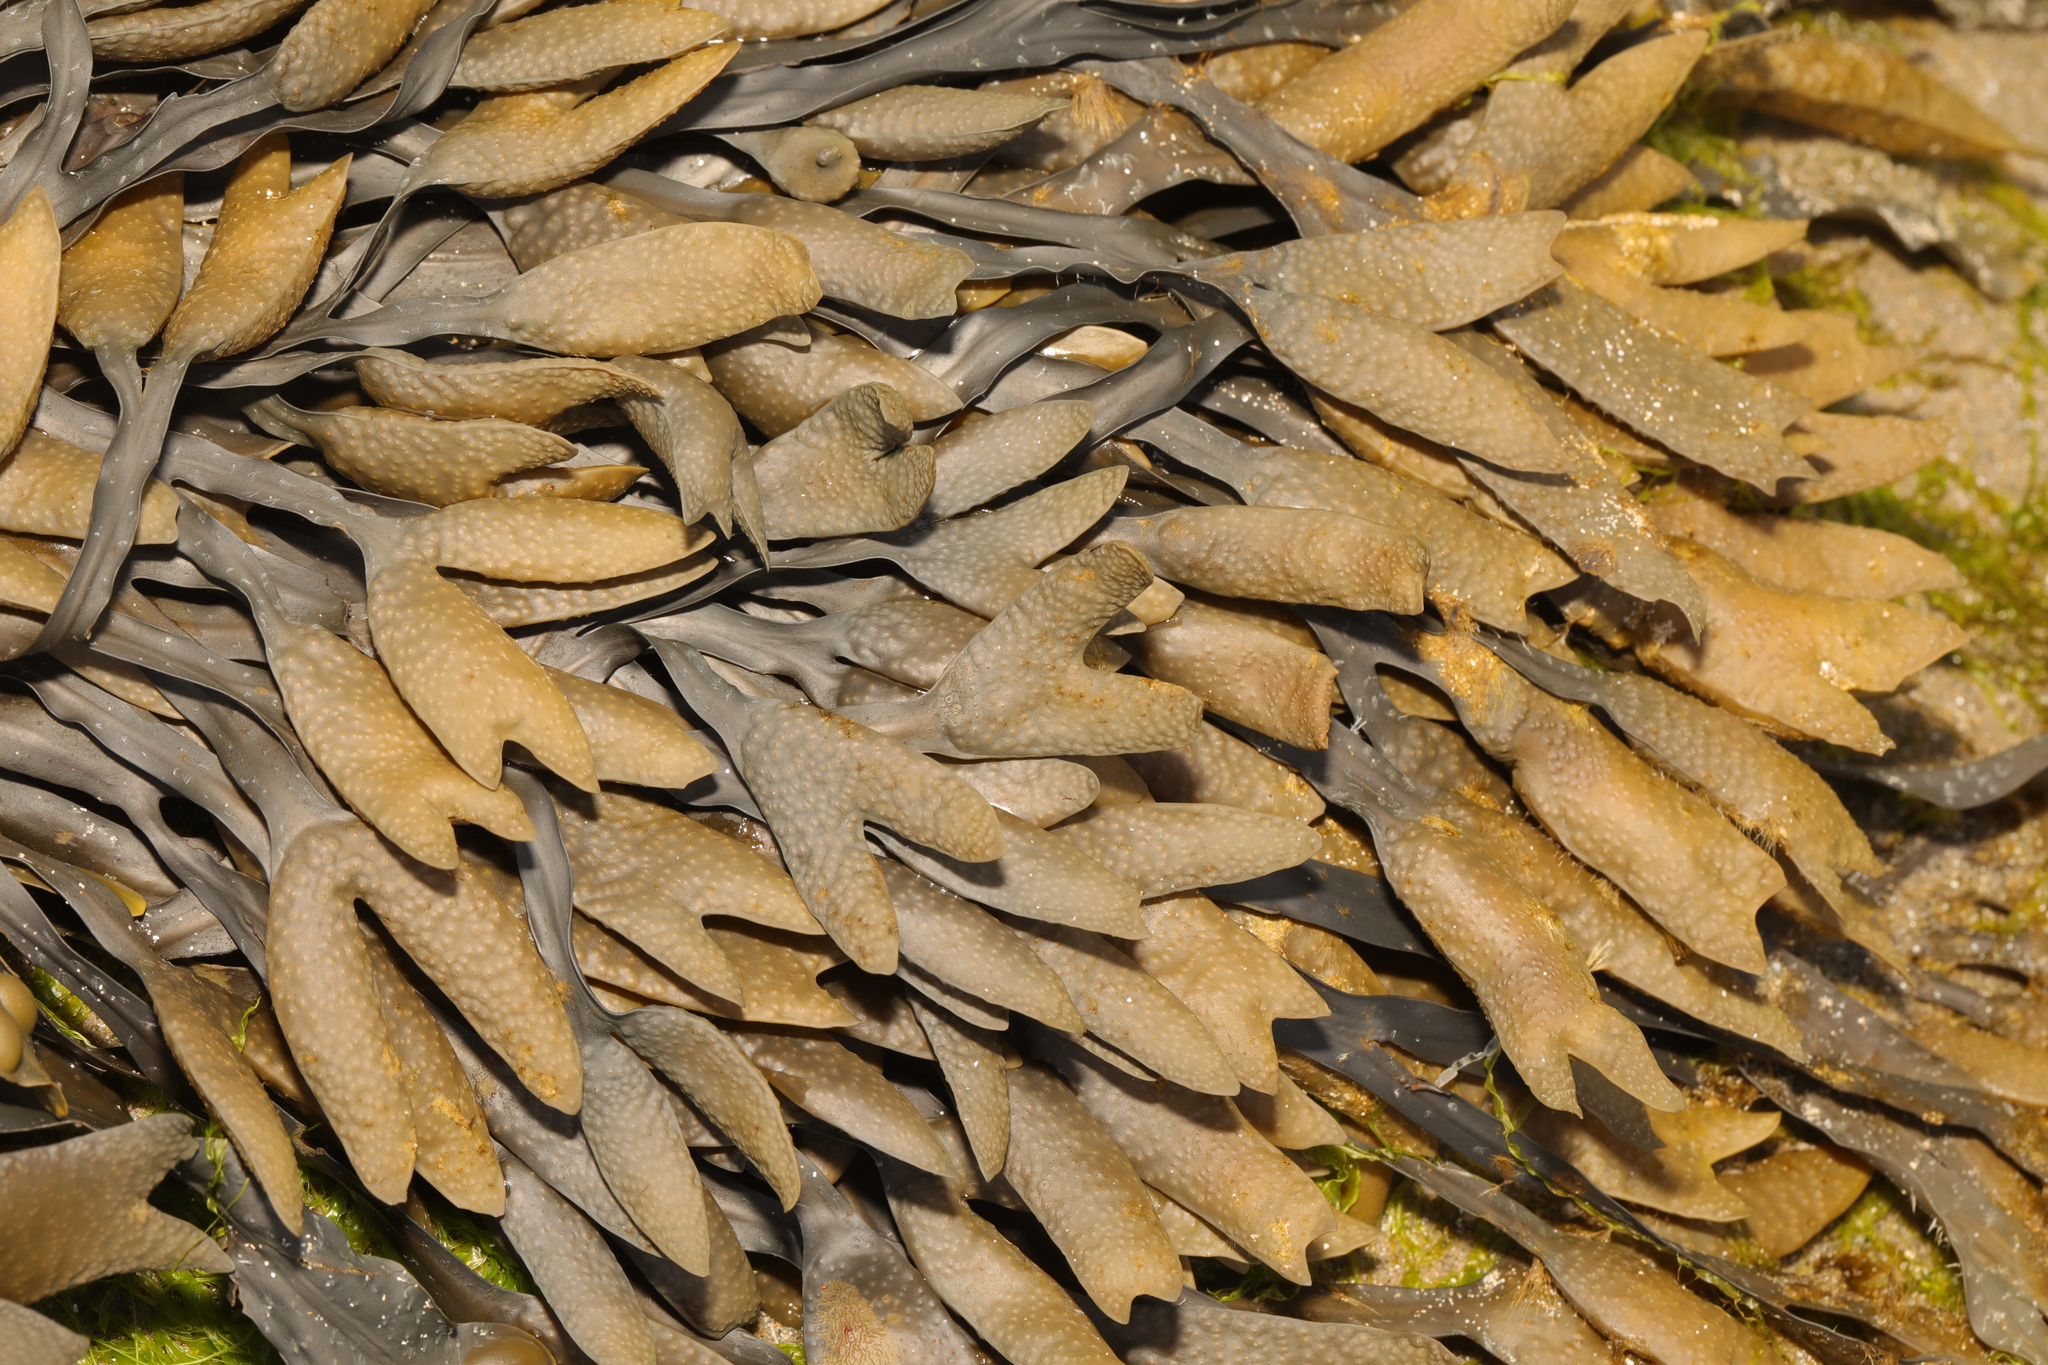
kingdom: Chromista
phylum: Ochrophyta
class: Phaeophyceae
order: Fucales
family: Fucaceae
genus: Fucus
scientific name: Fucus distichus
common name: Rockweed
